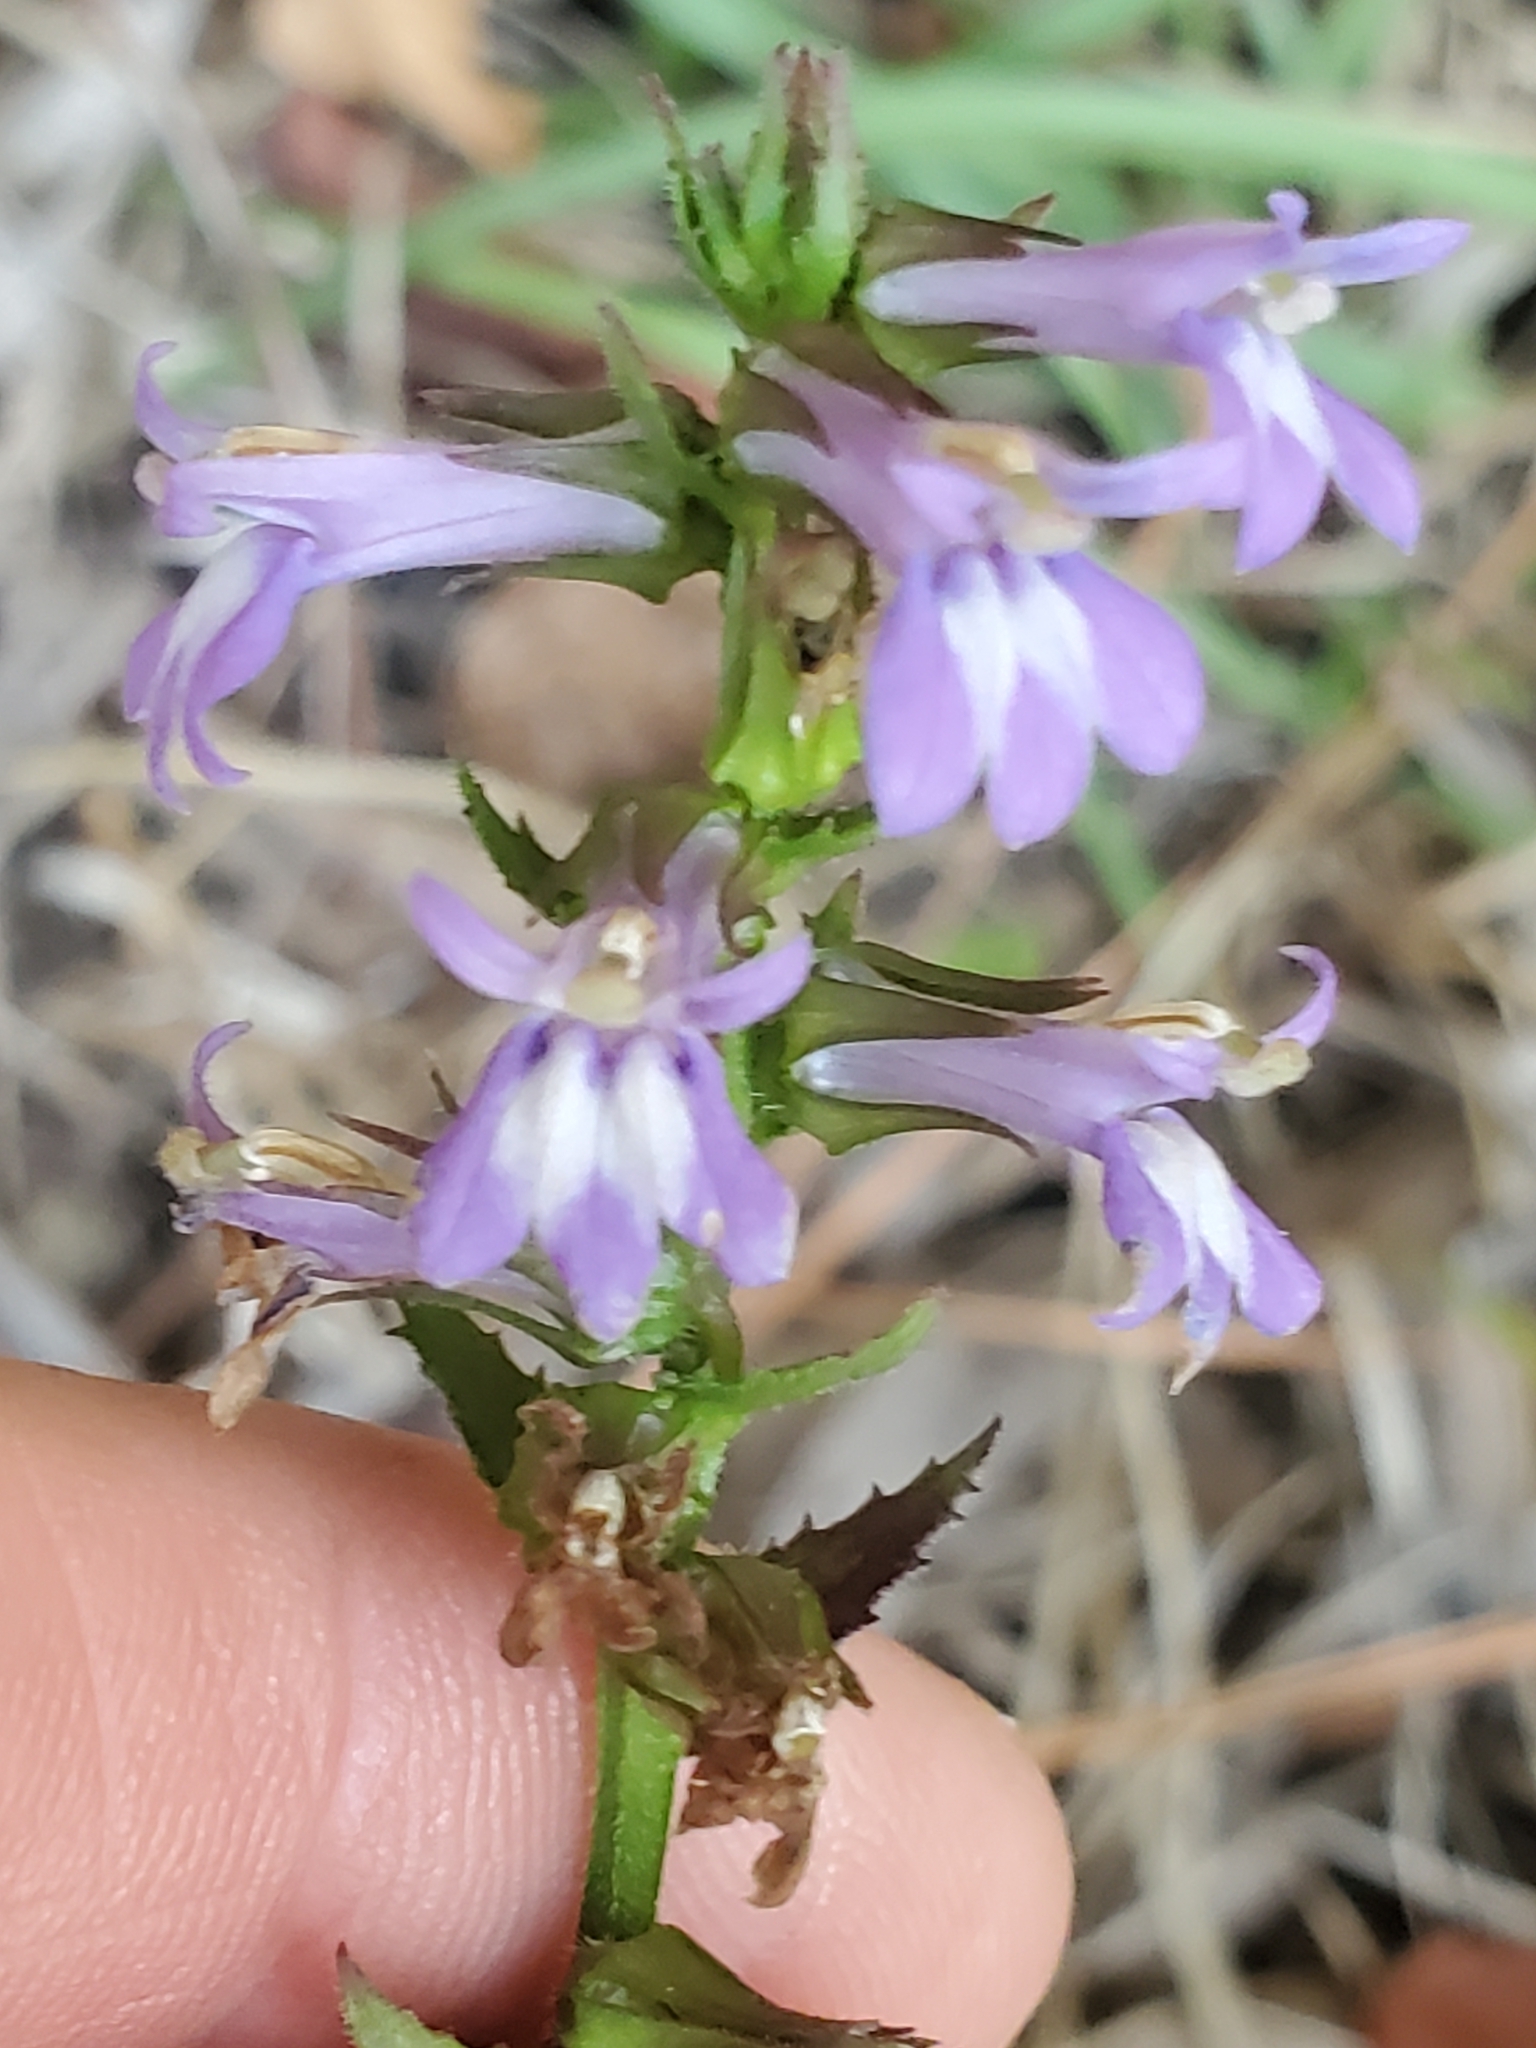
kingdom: Plantae
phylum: Tracheophyta
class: Magnoliopsida
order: Asterales
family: Campanulaceae
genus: Lobelia
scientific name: Lobelia puberula
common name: Purple dewdrop
